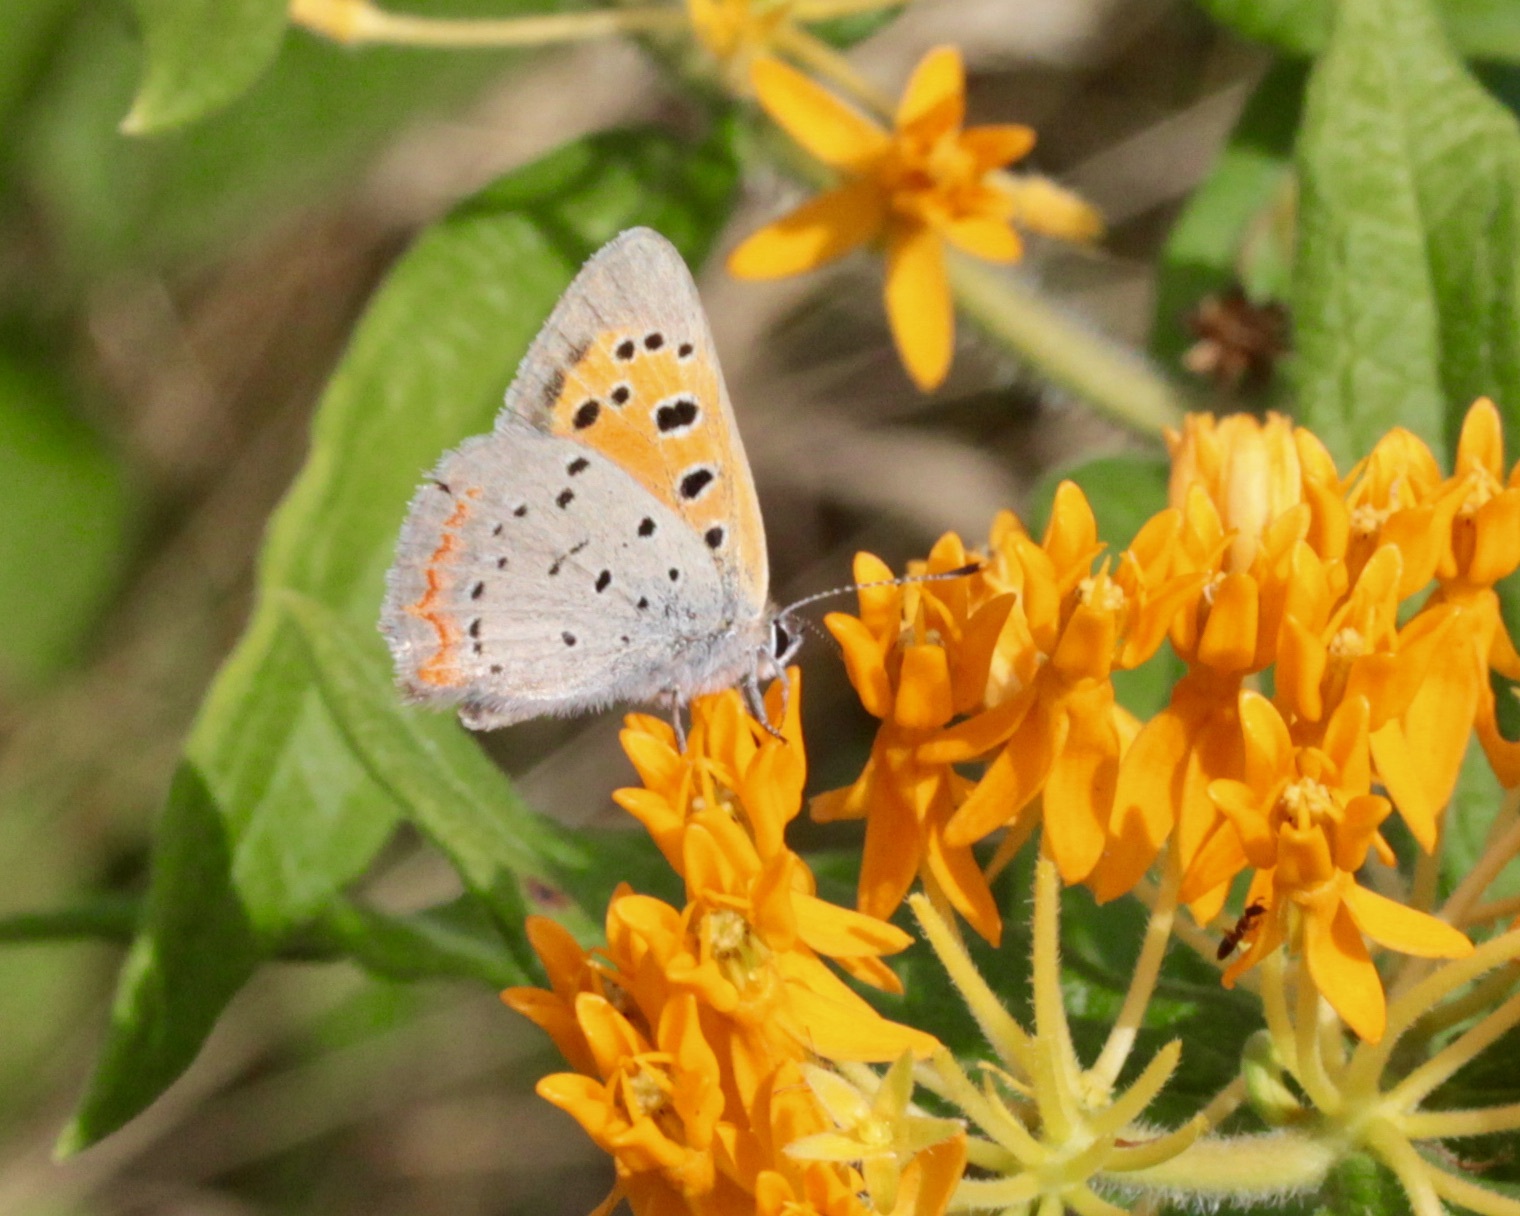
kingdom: Animalia
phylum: Arthropoda
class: Insecta
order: Lepidoptera
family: Lycaenidae
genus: Lycaena
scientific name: Lycaena hypophlaeas
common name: American copper
